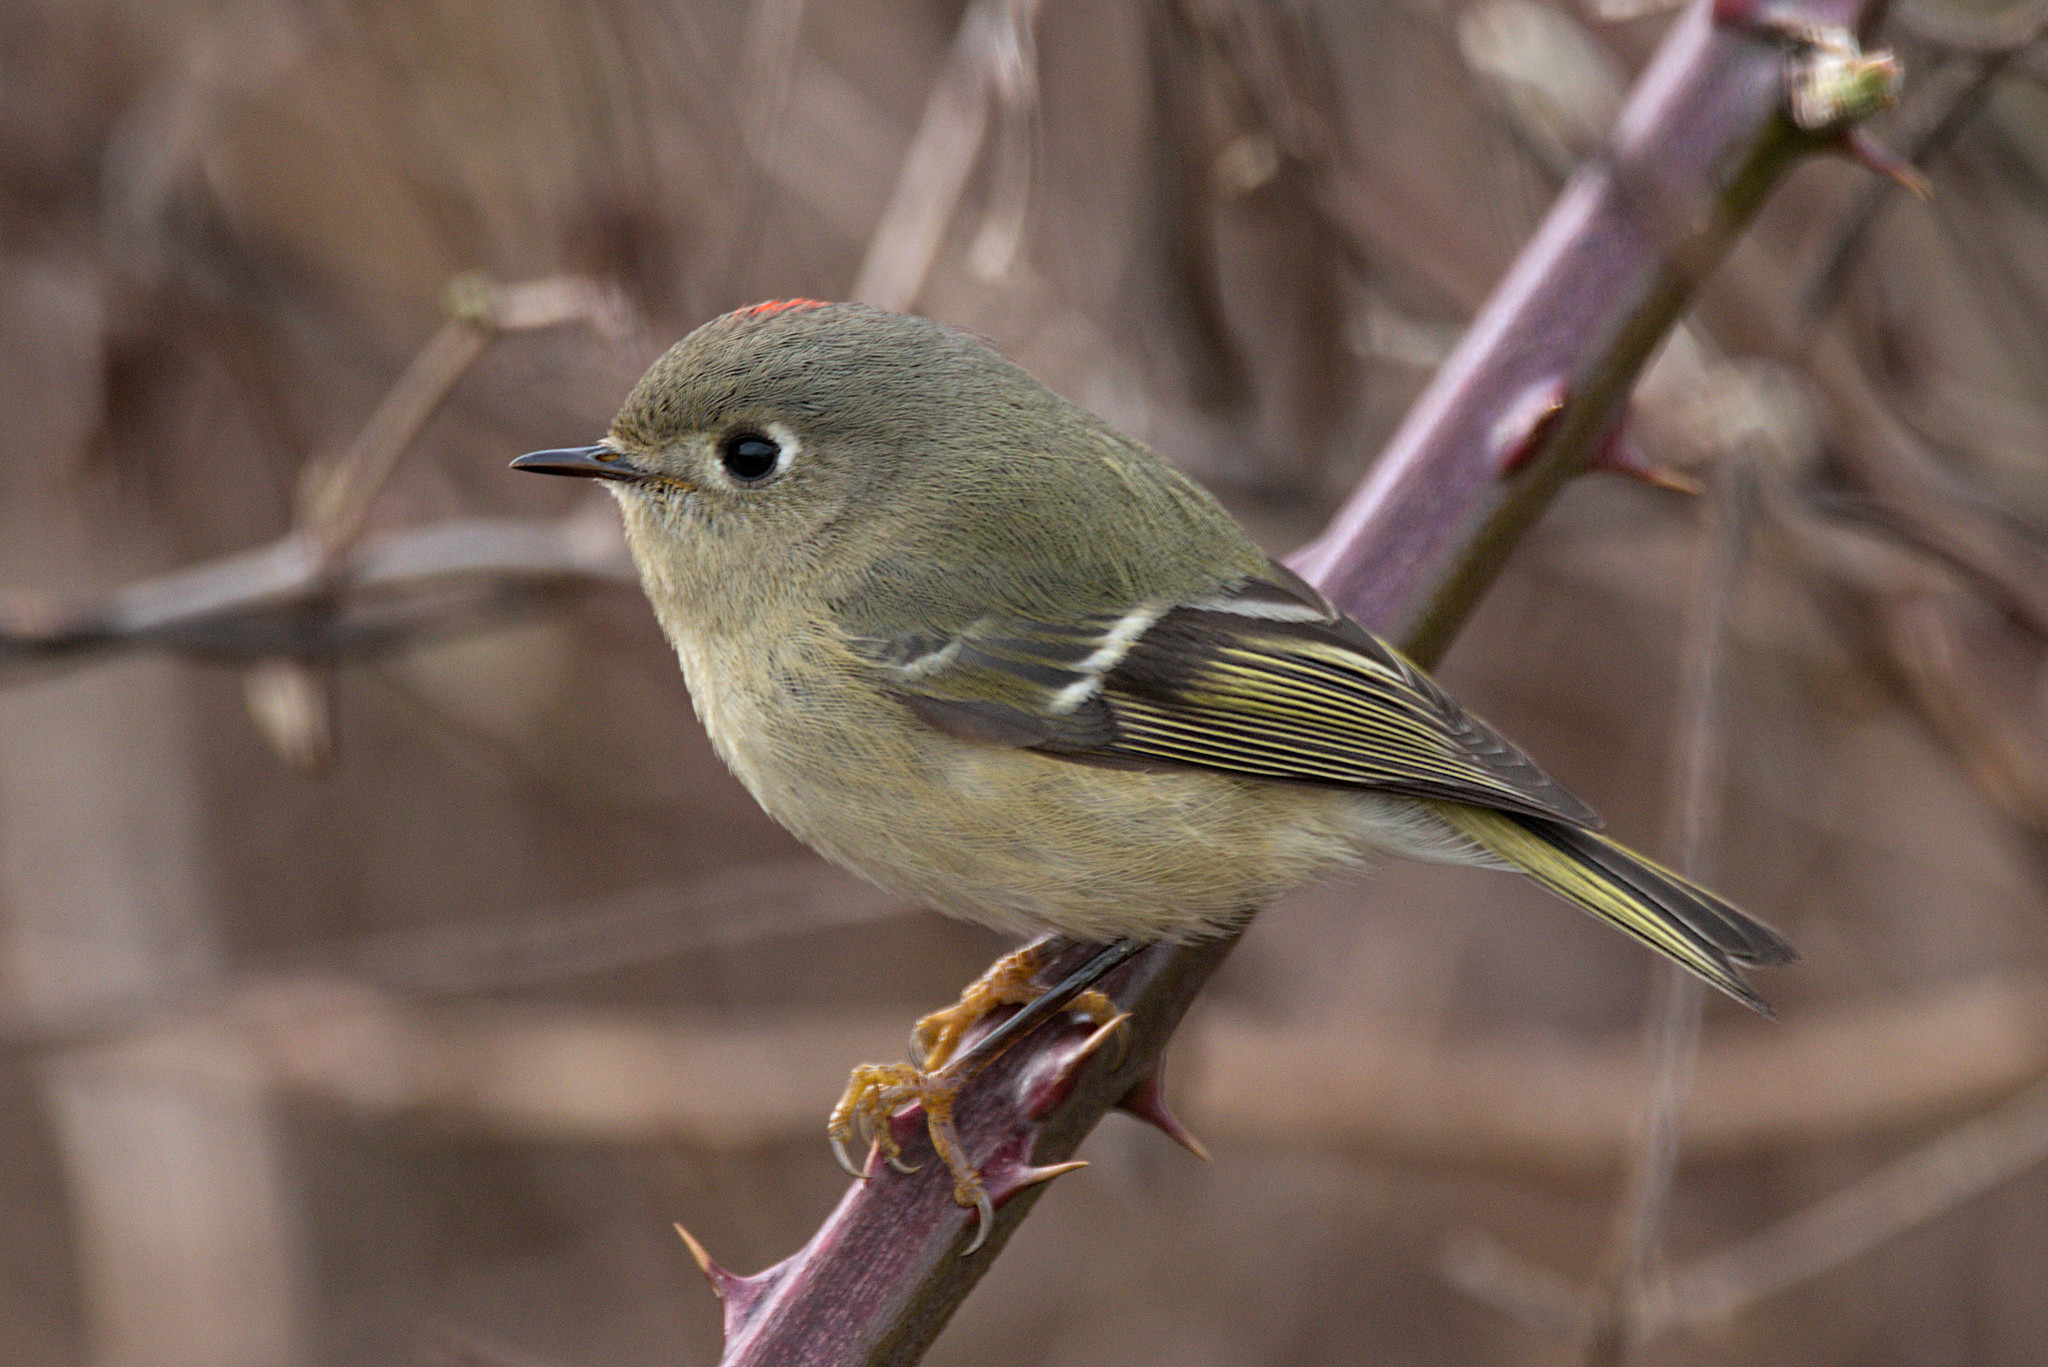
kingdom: Animalia
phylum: Chordata
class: Aves
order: Passeriformes
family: Regulidae
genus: Regulus
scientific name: Regulus calendula
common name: Ruby-crowned kinglet
